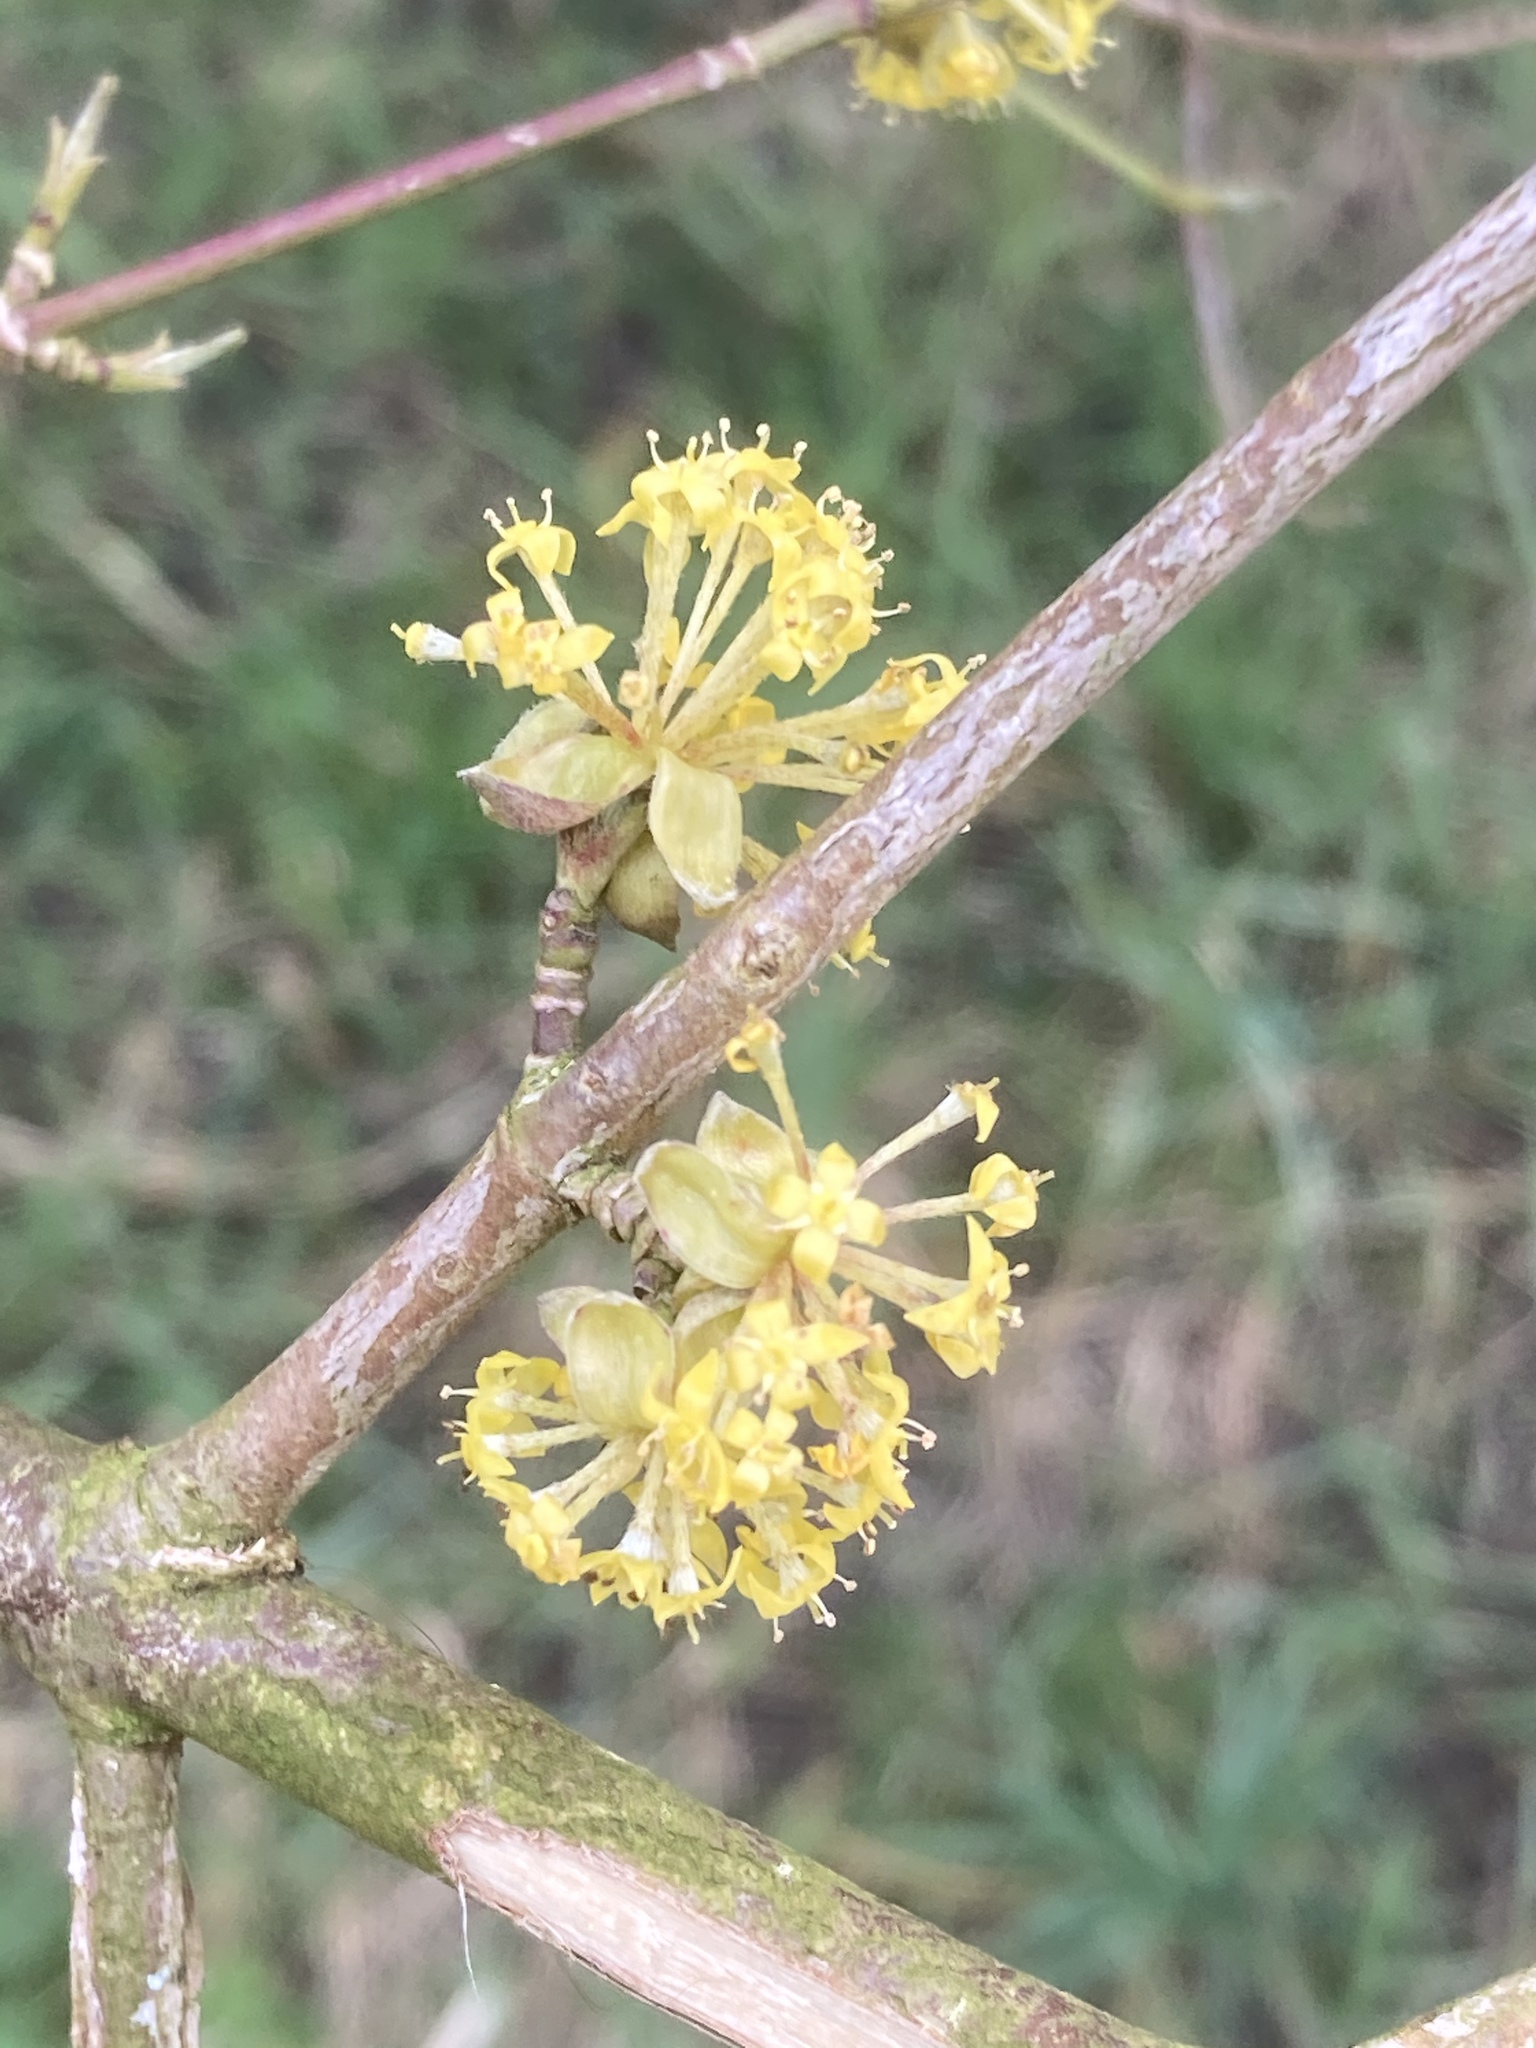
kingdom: Plantae
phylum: Tracheophyta
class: Magnoliopsida
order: Cornales
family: Cornaceae
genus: Cornus
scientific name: Cornus mas
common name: Cornelian-cherry
